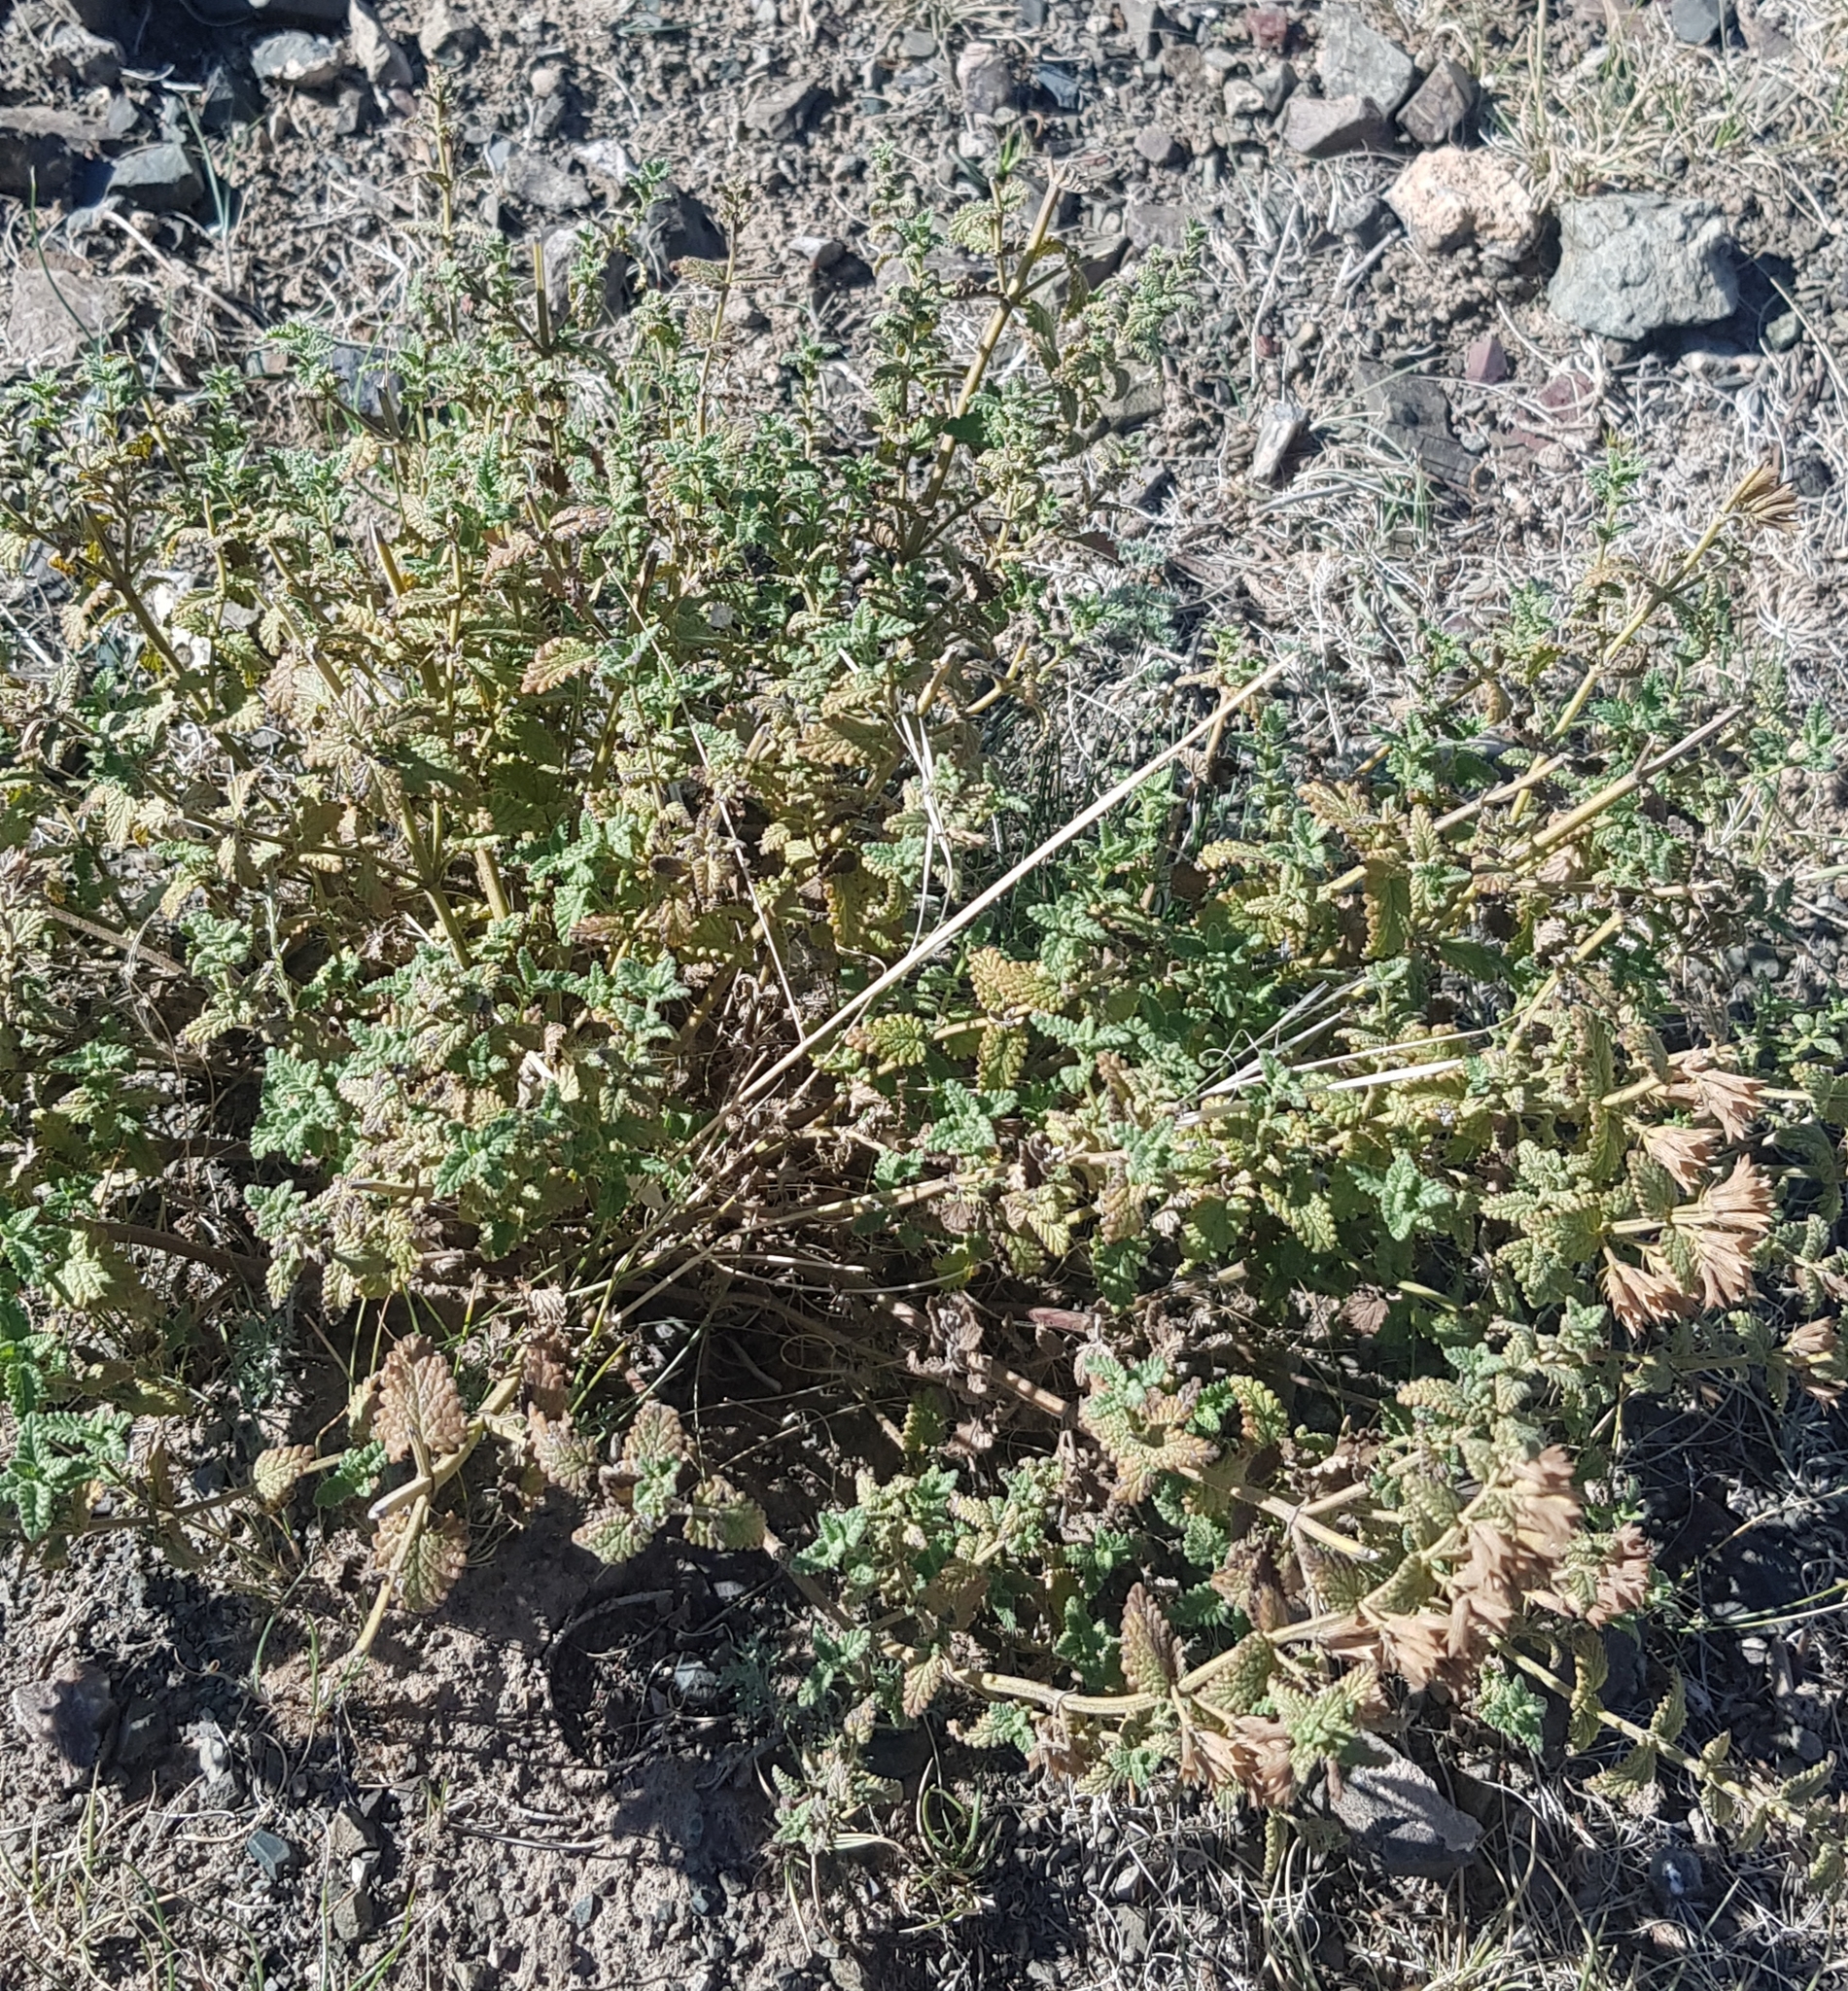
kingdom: Plantae
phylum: Tracheophyta
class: Magnoliopsida
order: Lamiales
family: Lamiaceae
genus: Nepeta
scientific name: Nepeta lophanthus
